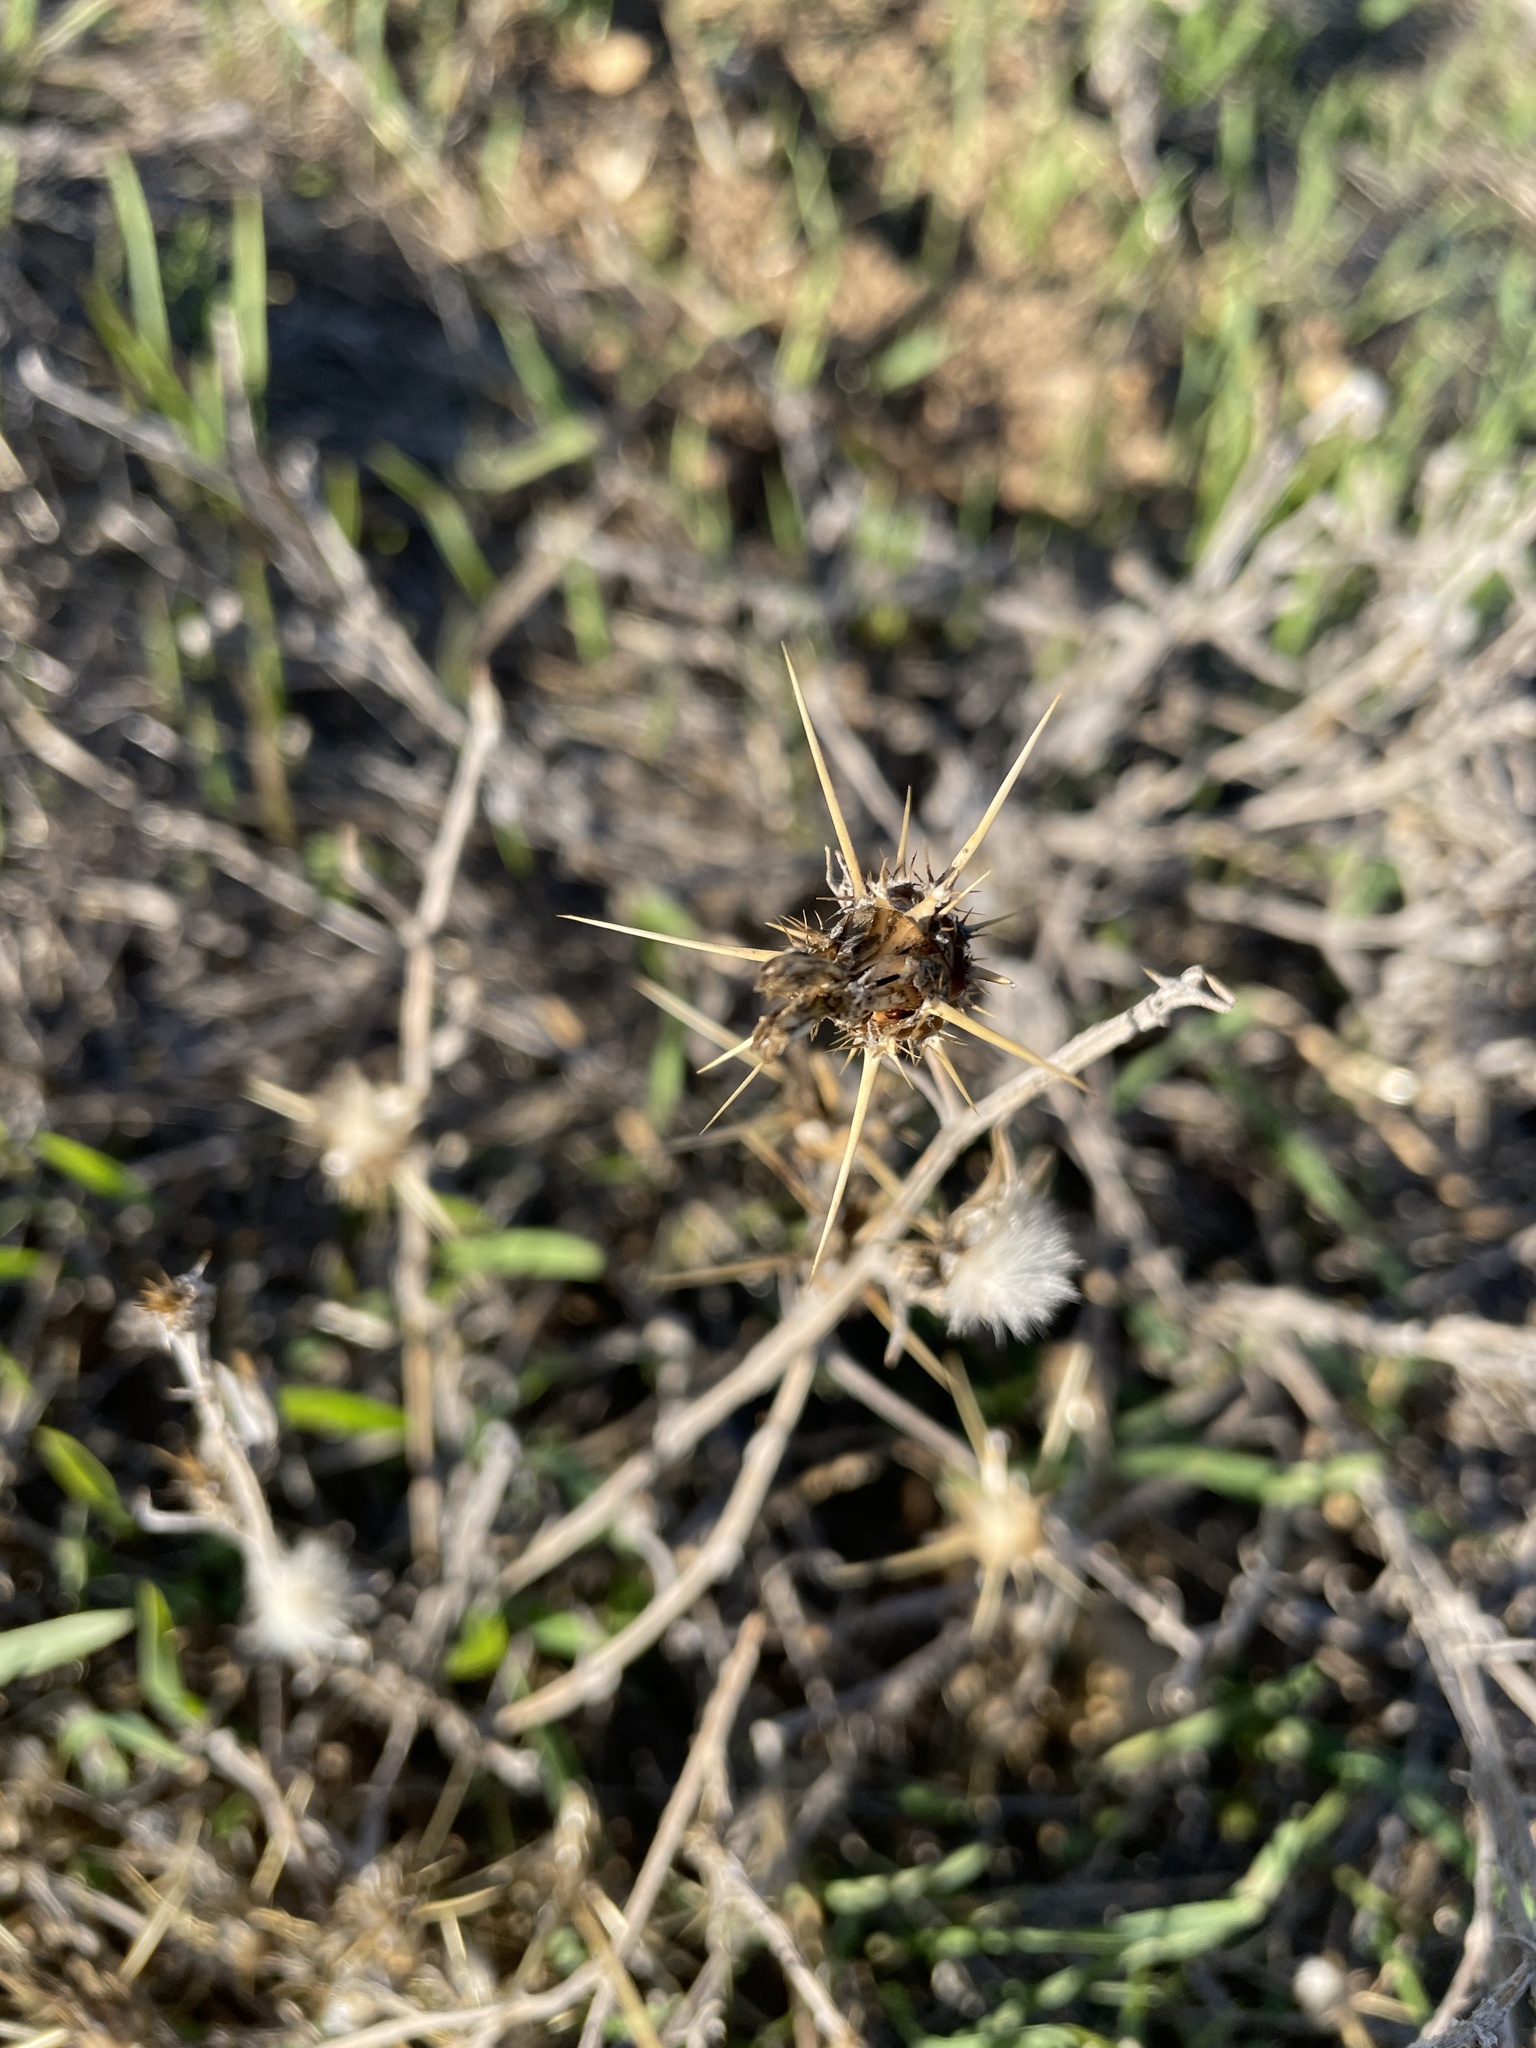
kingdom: Plantae
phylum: Tracheophyta
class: Magnoliopsida
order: Asterales
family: Asteraceae
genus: Centaurea
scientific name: Centaurea solstitialis
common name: Yellow star-thistle
